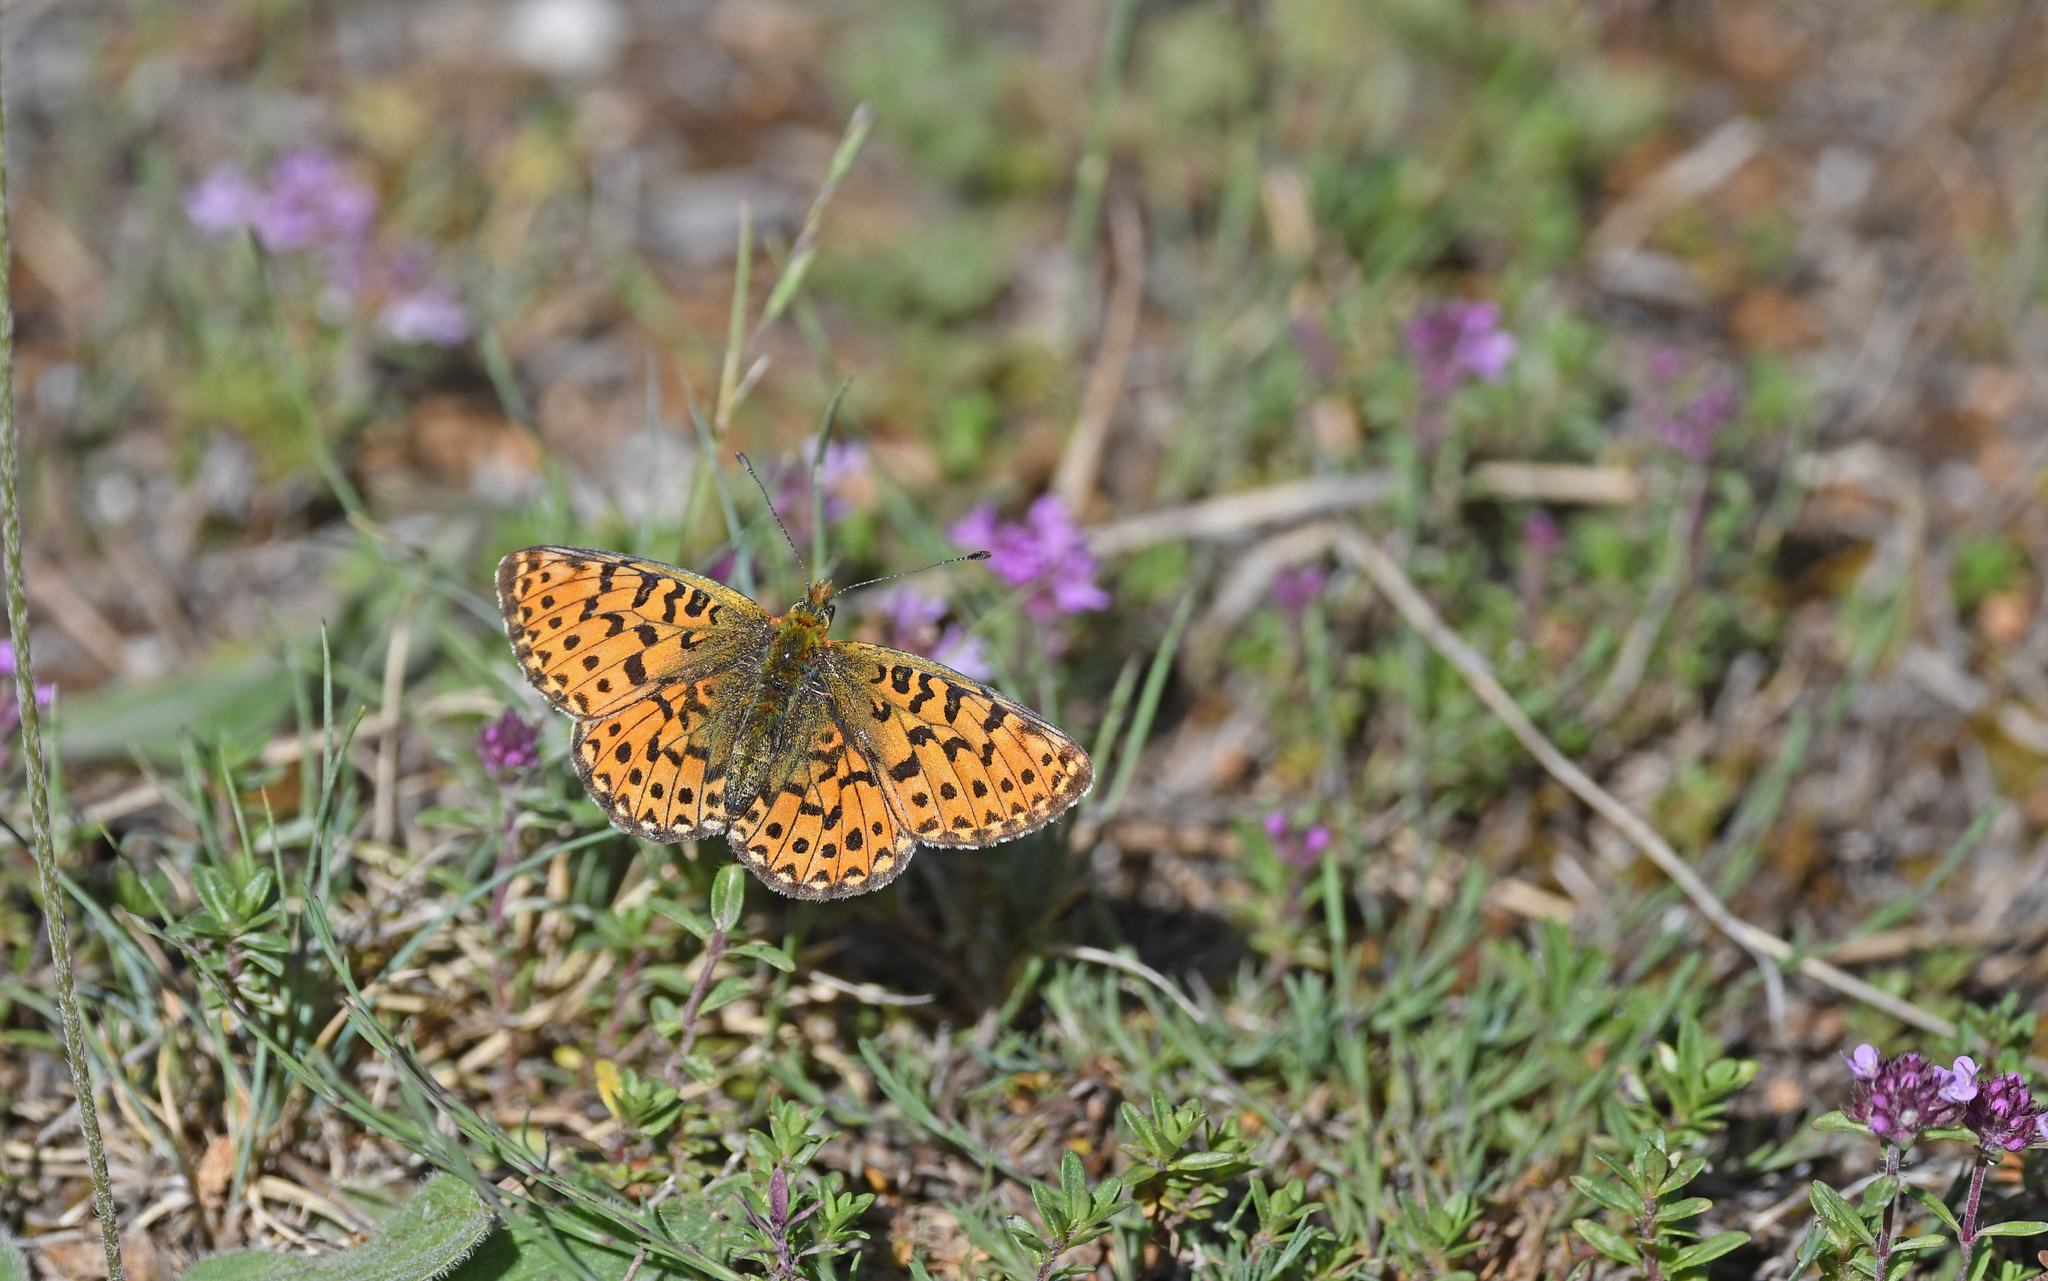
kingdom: Animalia
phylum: Arthropoda
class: Insecta
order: Lepidoptera
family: Nymphalidae
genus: Clossiana
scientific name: Clossiana euphrosyne
